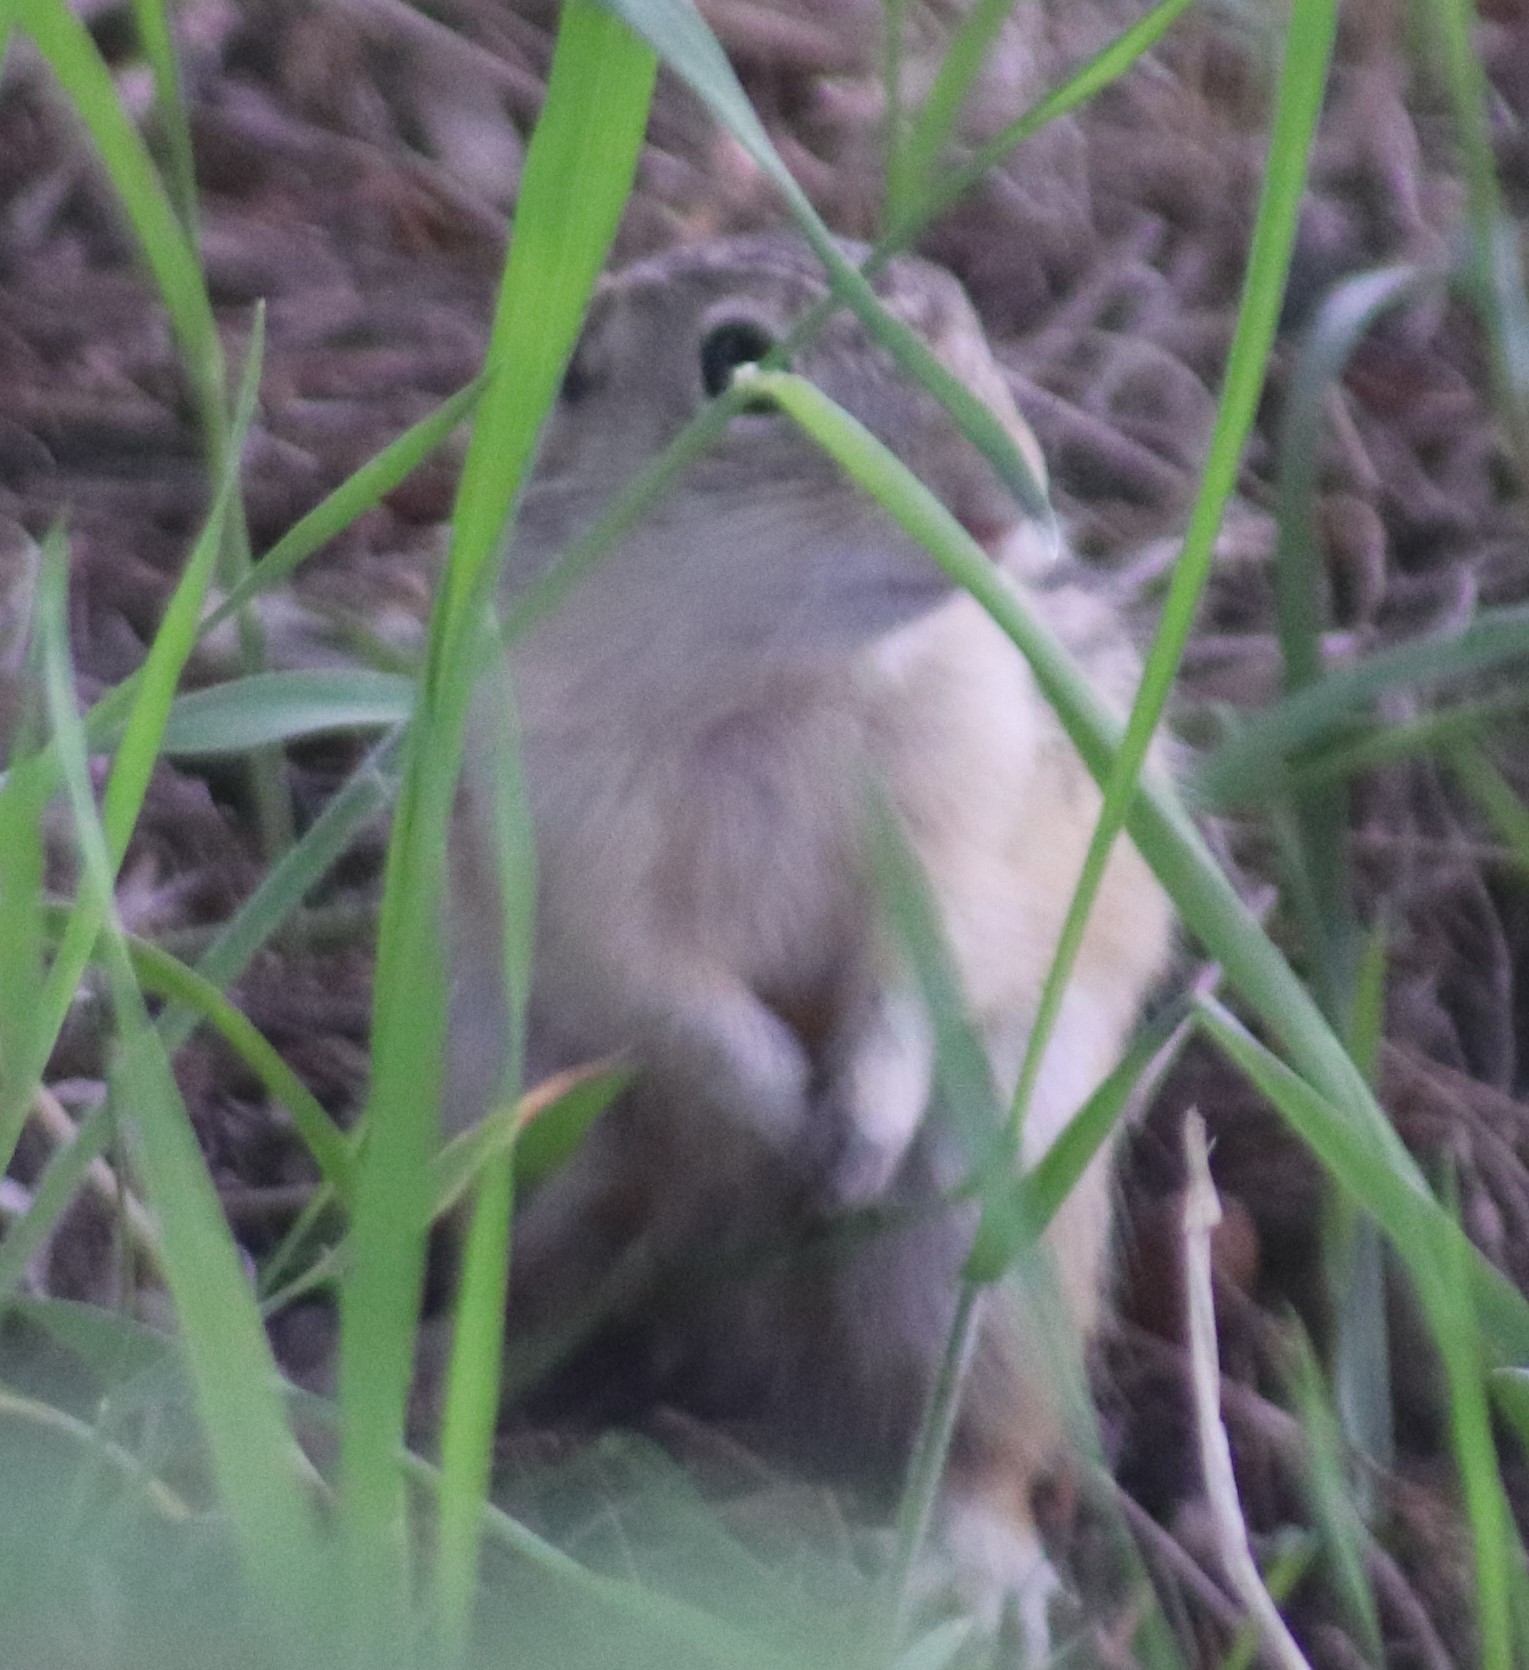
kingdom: Animalia
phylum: Chordata
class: Mammalia
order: Rodentia
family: Sciuridae
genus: Ictidomys
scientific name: Ictidomys tridecemlineatus
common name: Thirteen-lined ground squirrel
